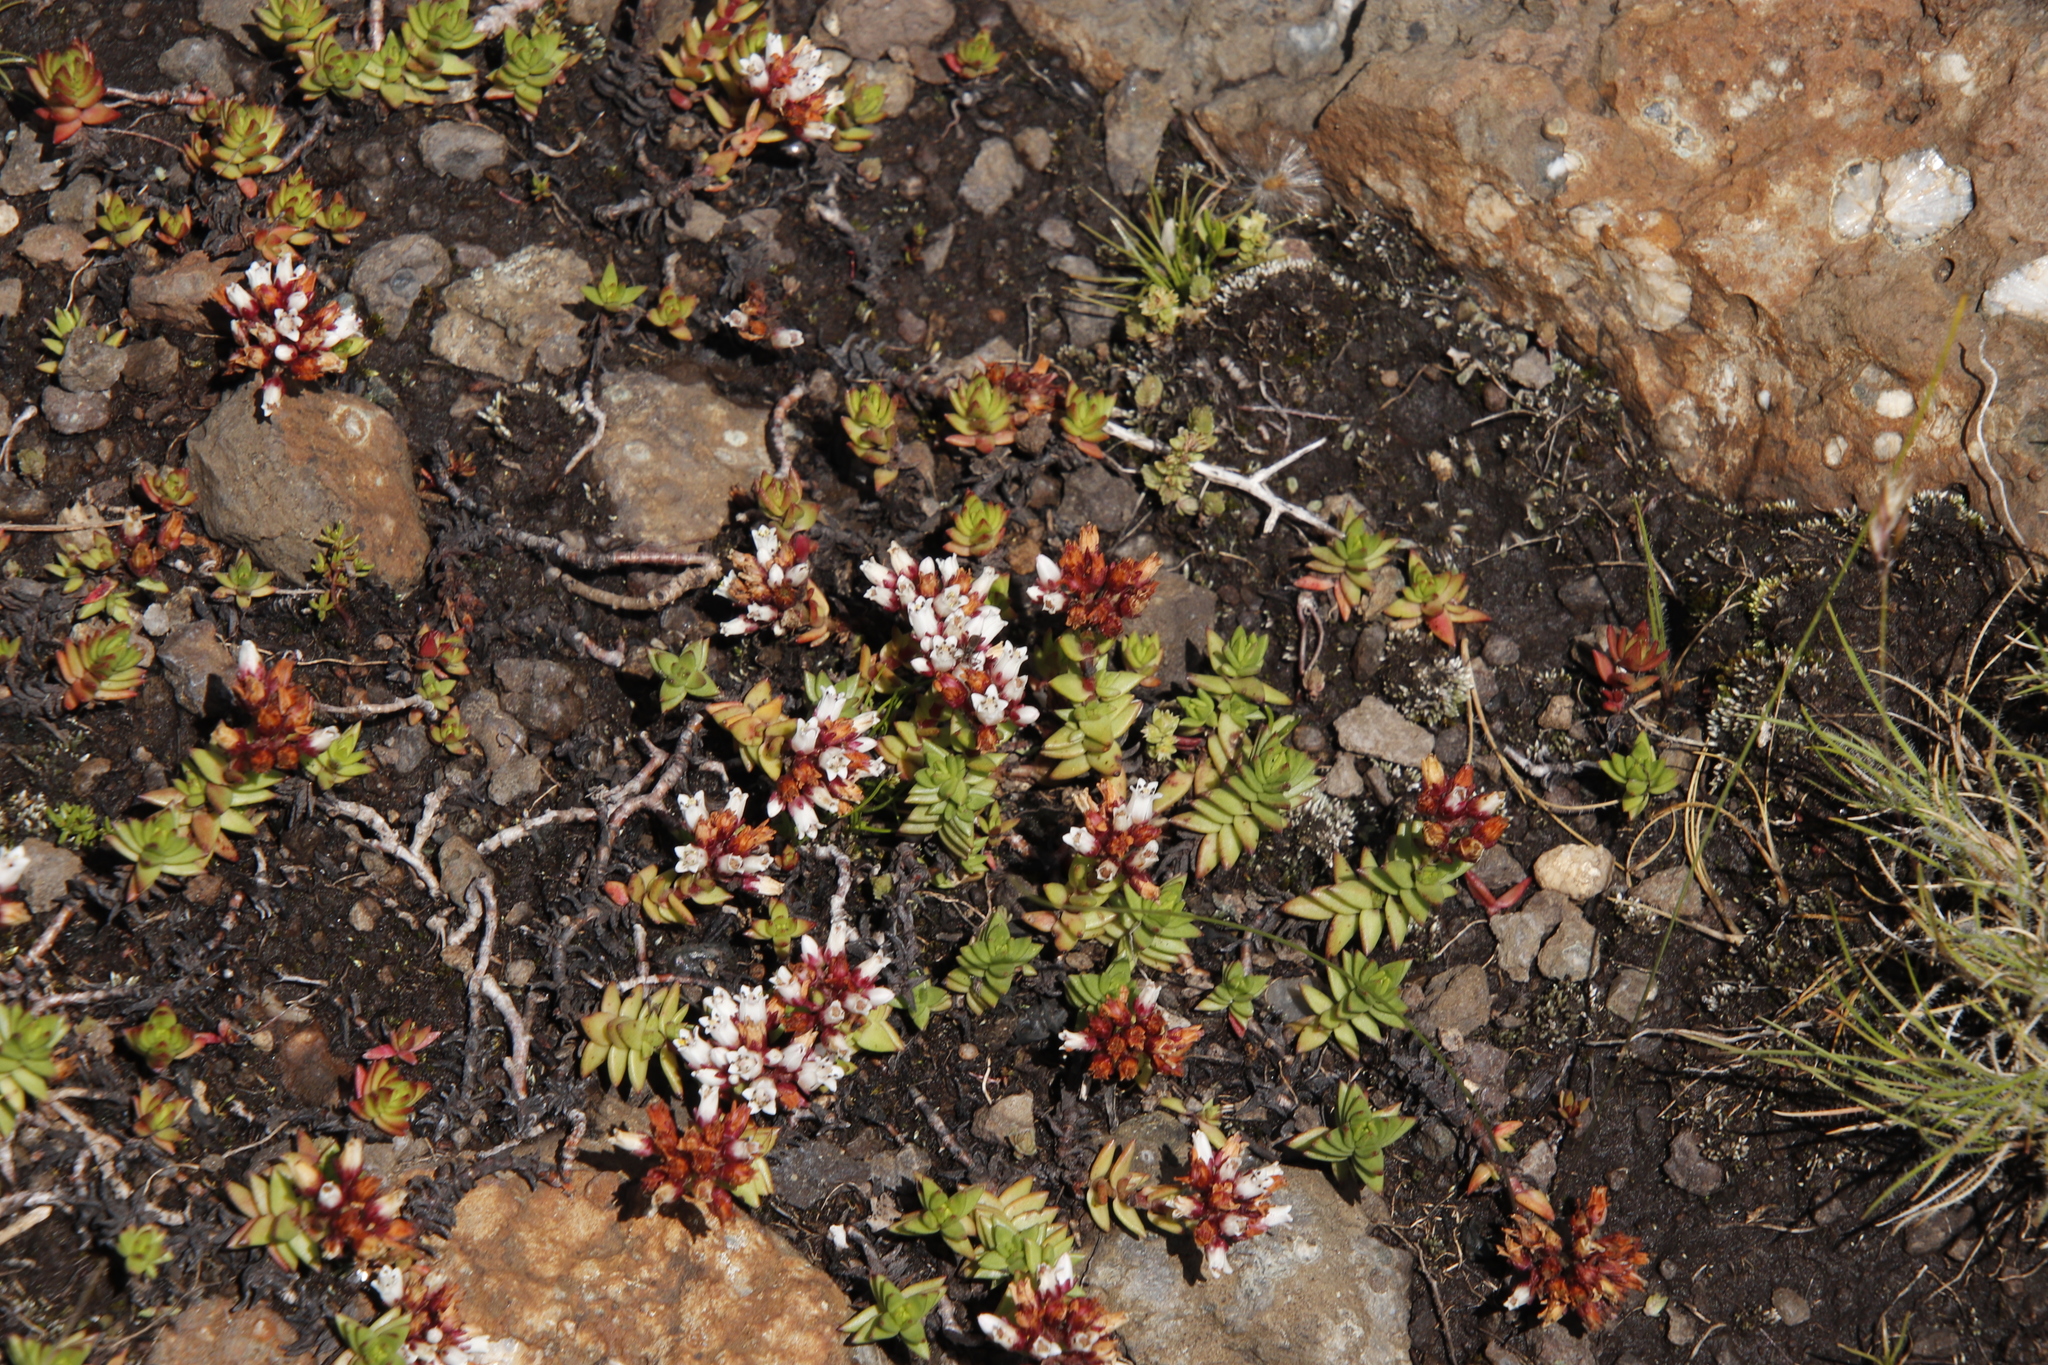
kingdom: Plantae
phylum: Tracheophyta
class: Magnoliopsida
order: Saxifragales
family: Crassulaceae
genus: Crassula
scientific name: Crassula dependens
